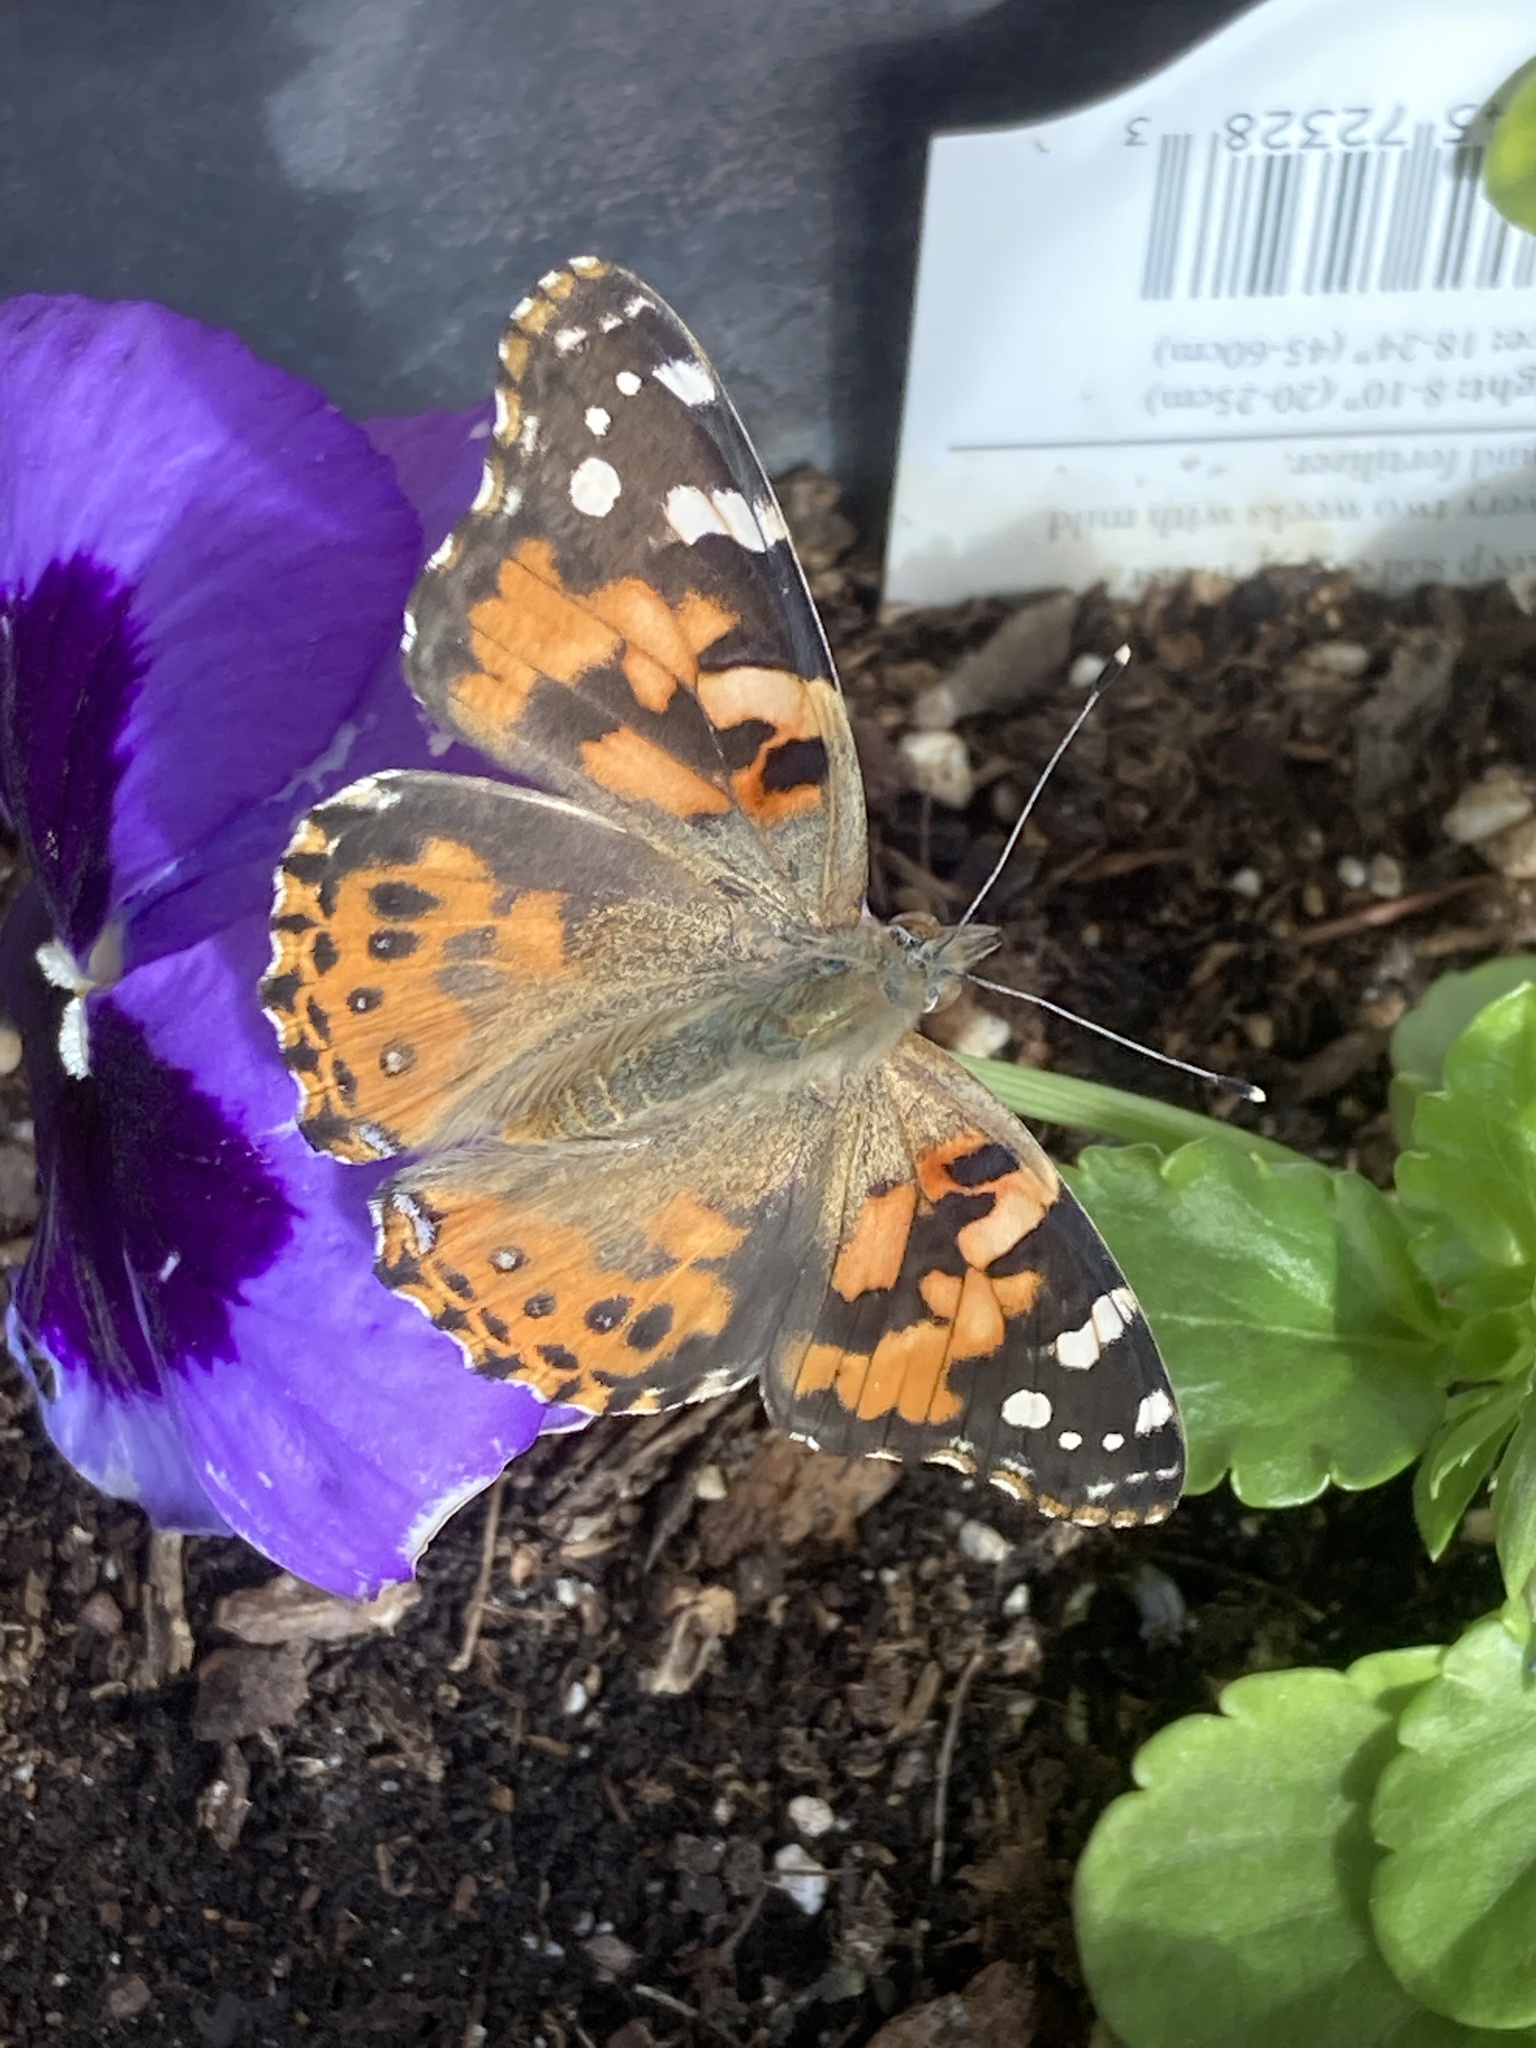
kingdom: Animalia
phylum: Arthropoda
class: Insecta
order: Lepidoptera
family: Nymphalidae
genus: Vanessa
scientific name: Vanessa cardui
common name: Painted lady
